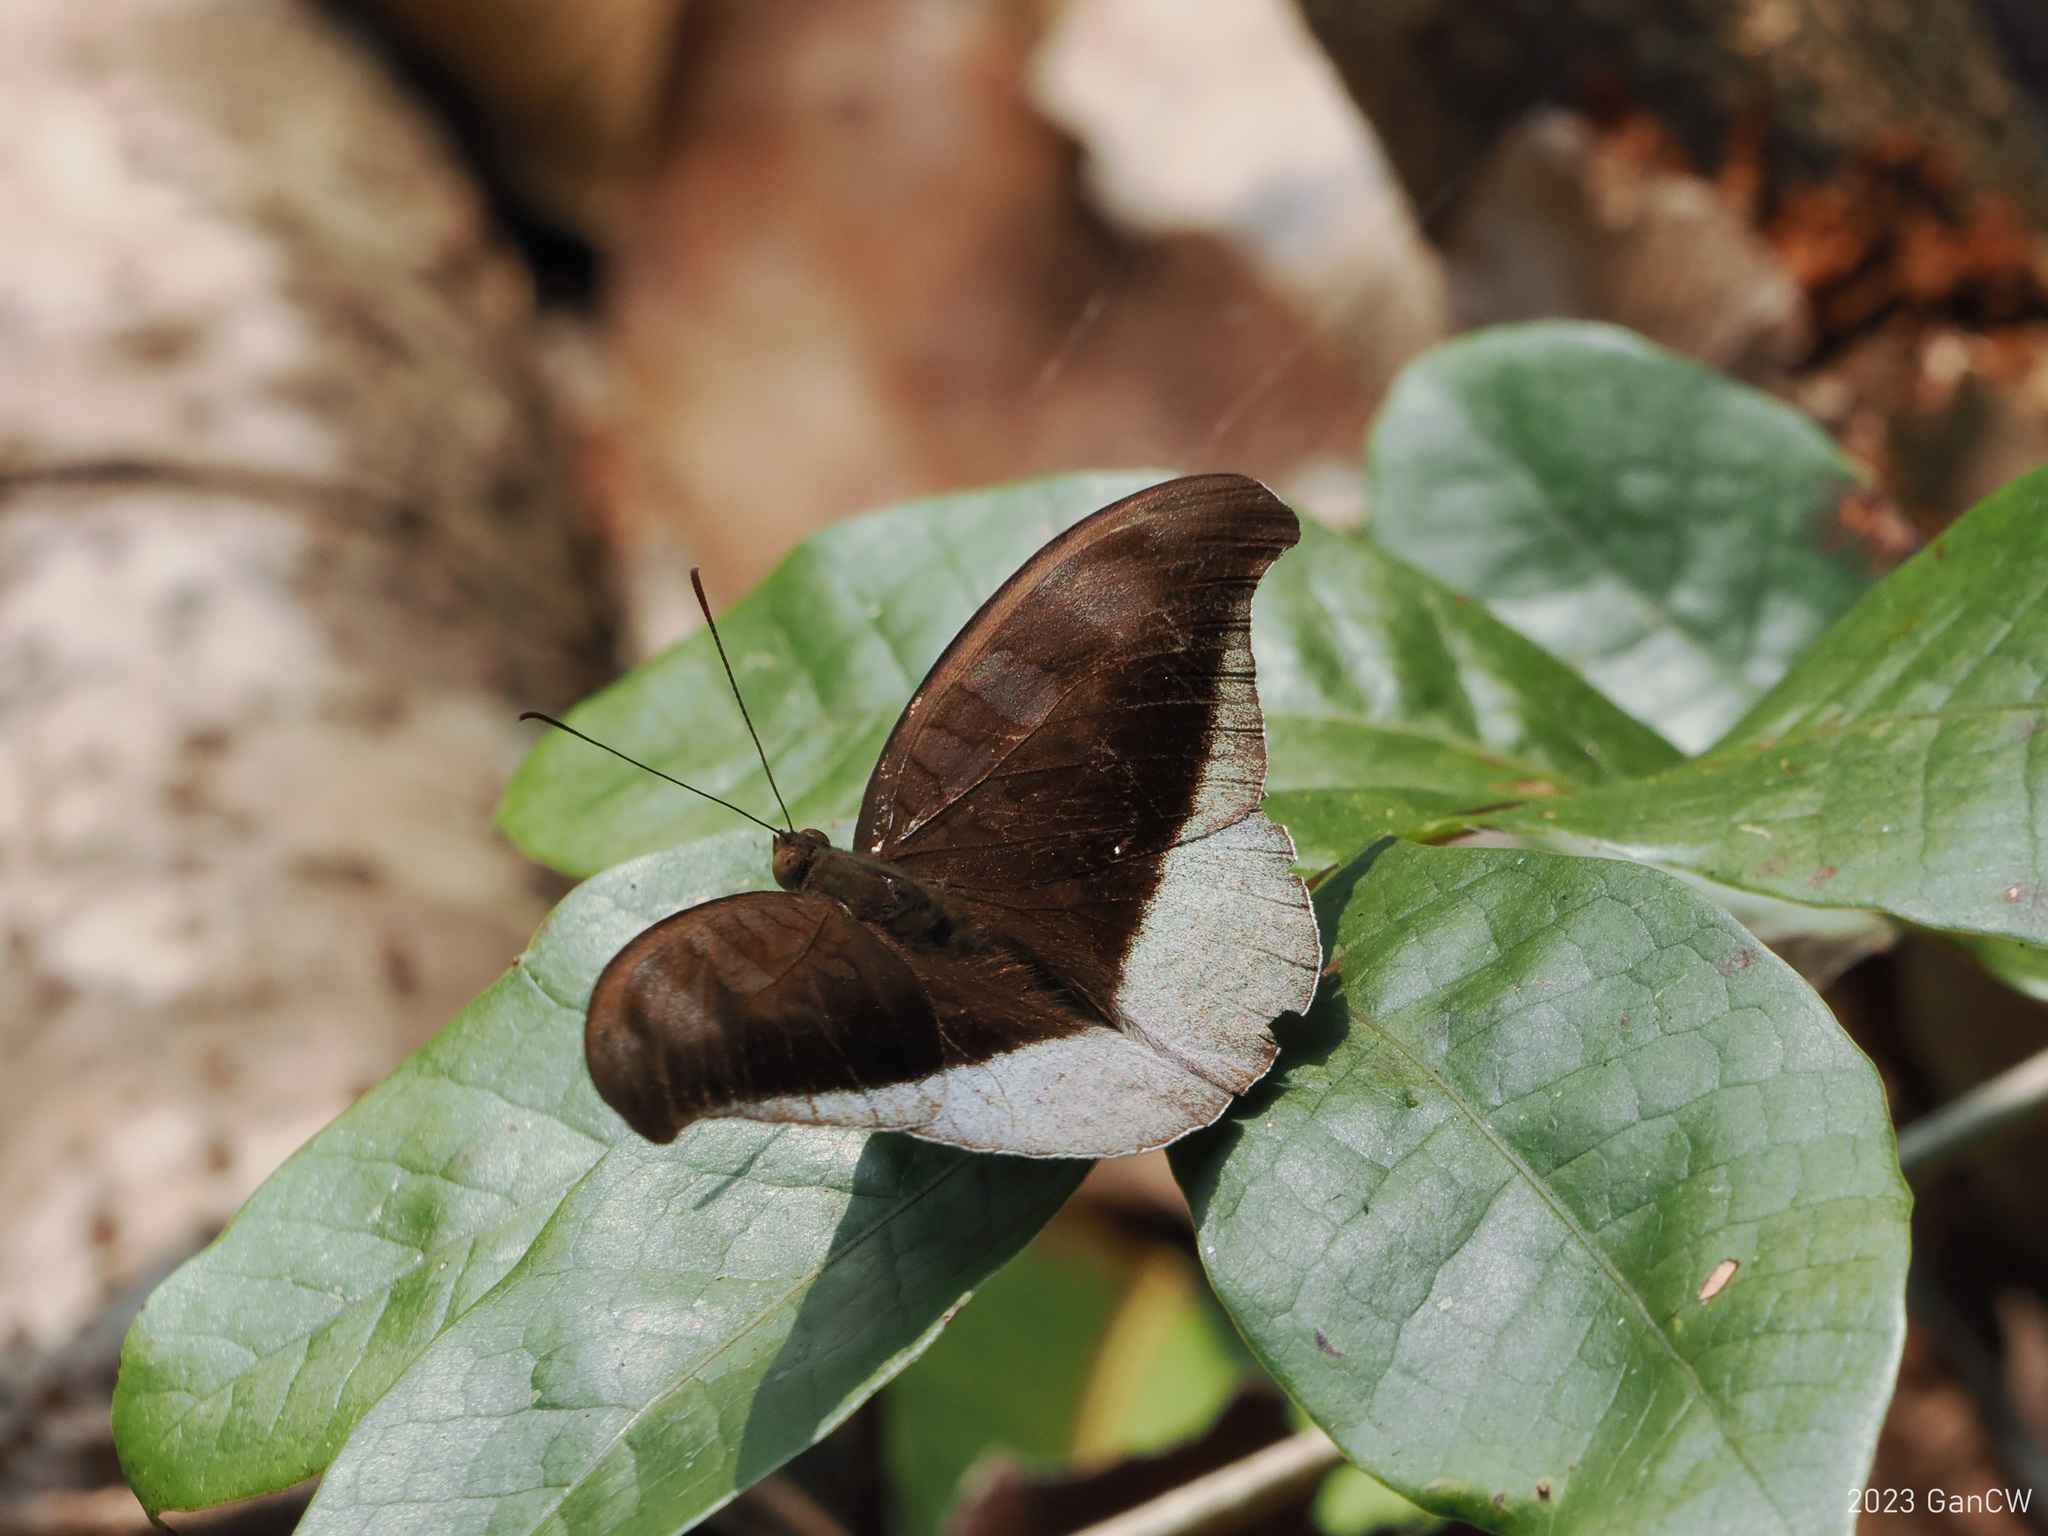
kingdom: Animalia
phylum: Arthropoda
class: Insecta
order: Lepidoptera
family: Nymphalidae
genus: Tanaecia
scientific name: Tanaecia lepidea
